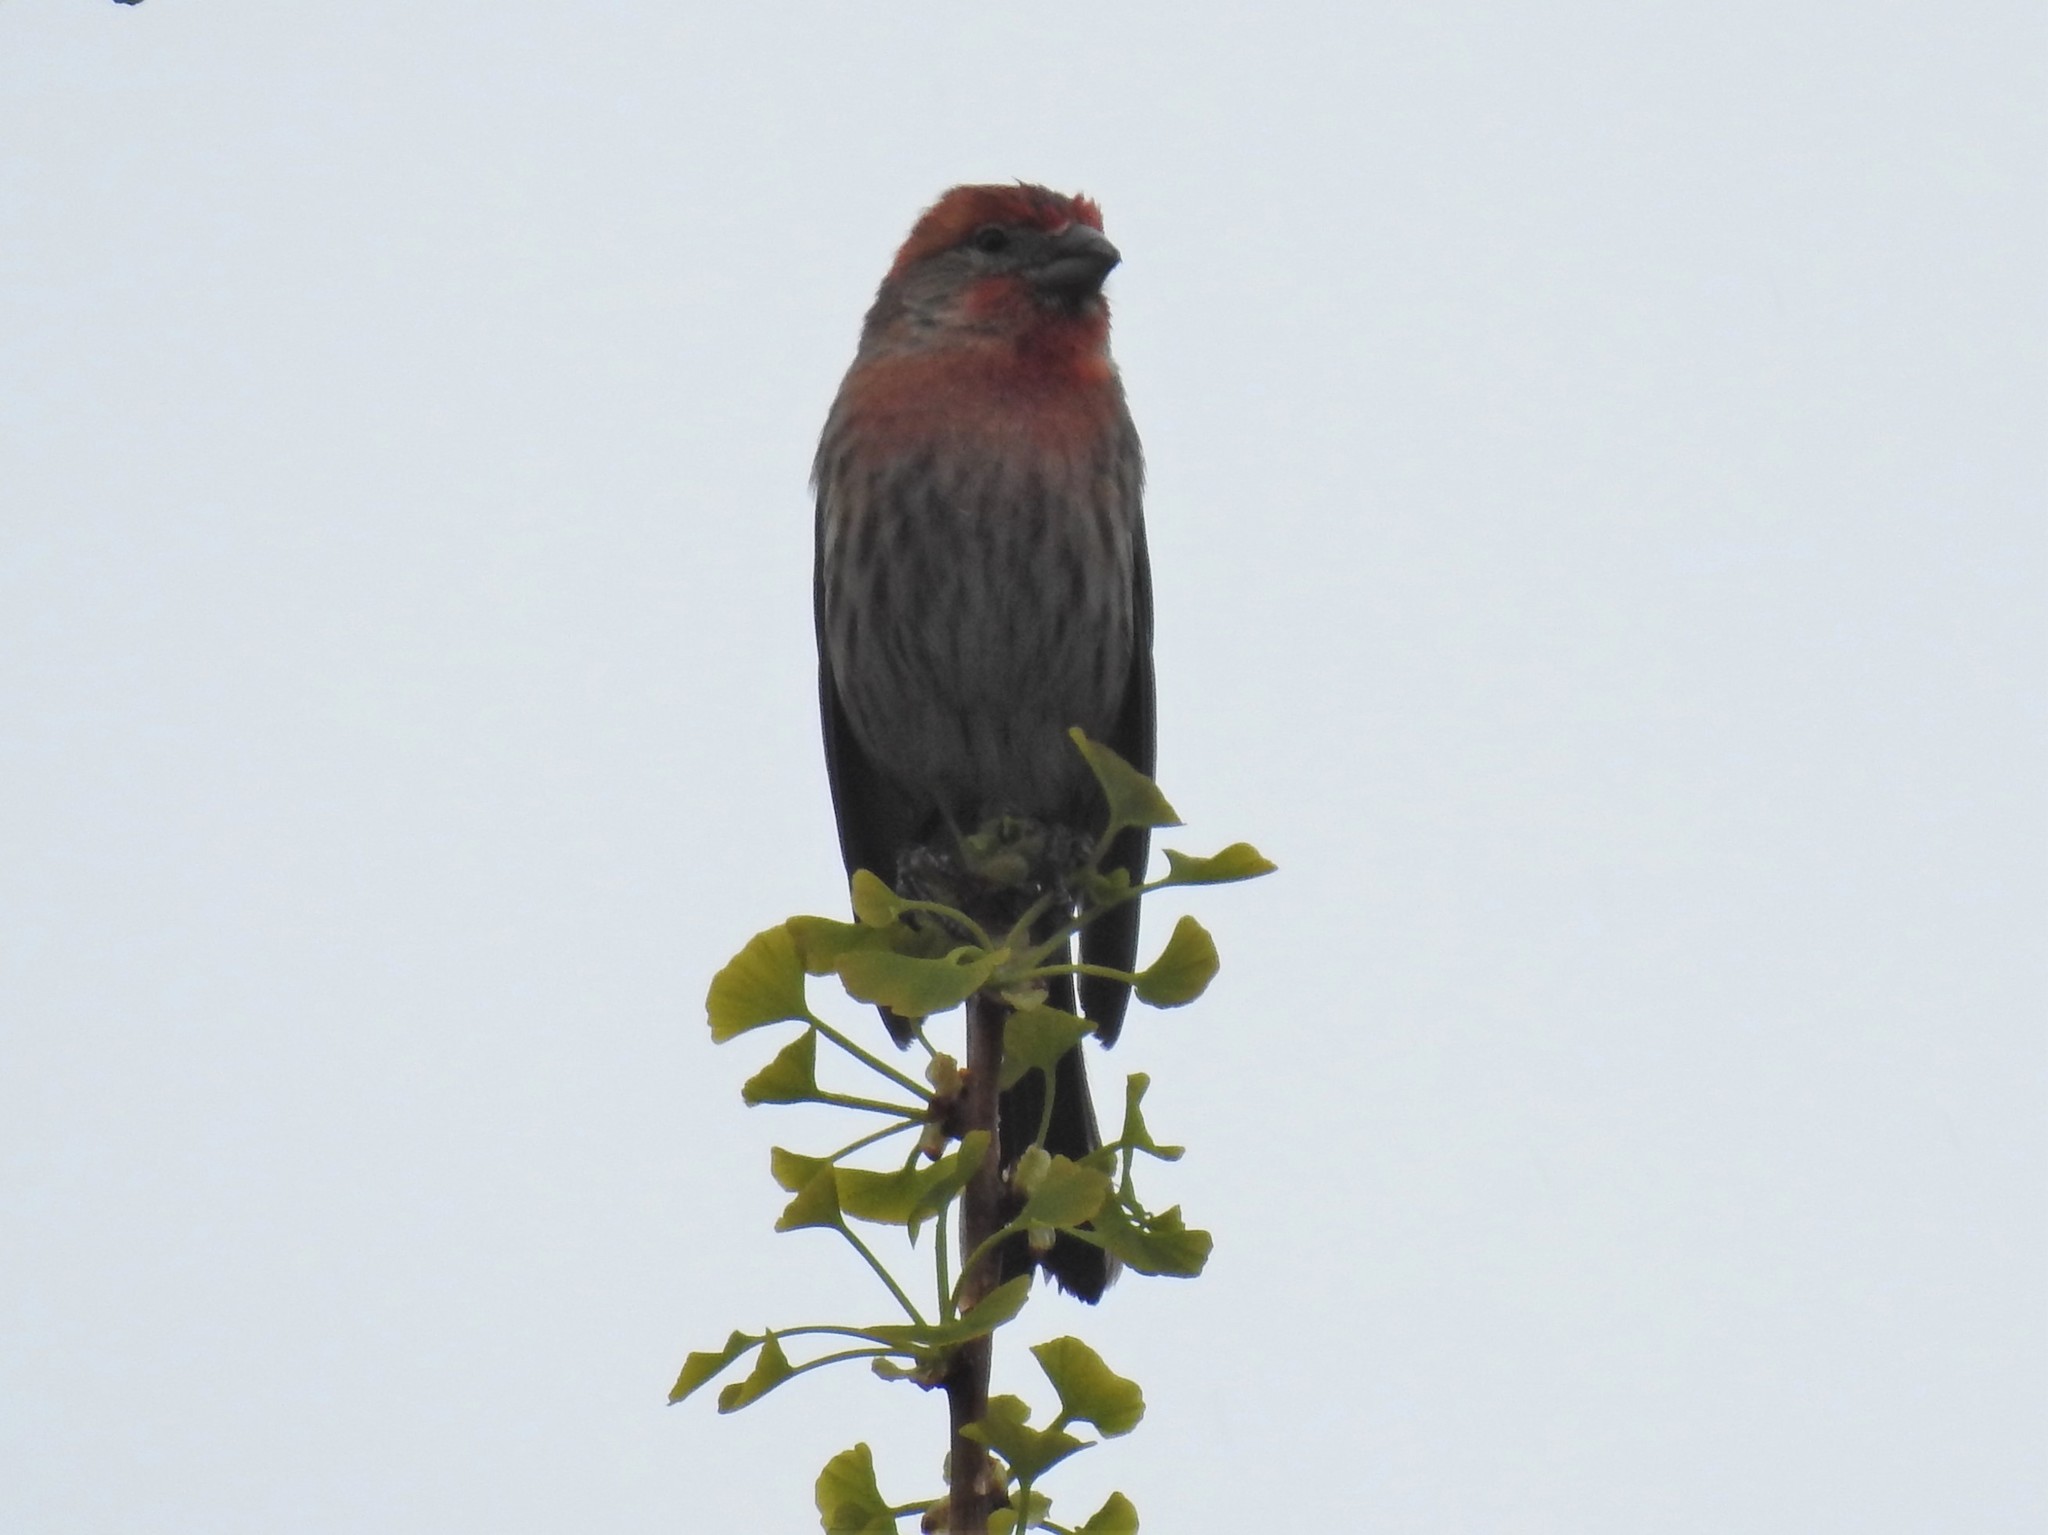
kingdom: Animalia
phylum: Chordata
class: Aves
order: Passeriformes
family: Fringillidae
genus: Haemorhous
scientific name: Haemorhous mexicanus
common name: House finch
